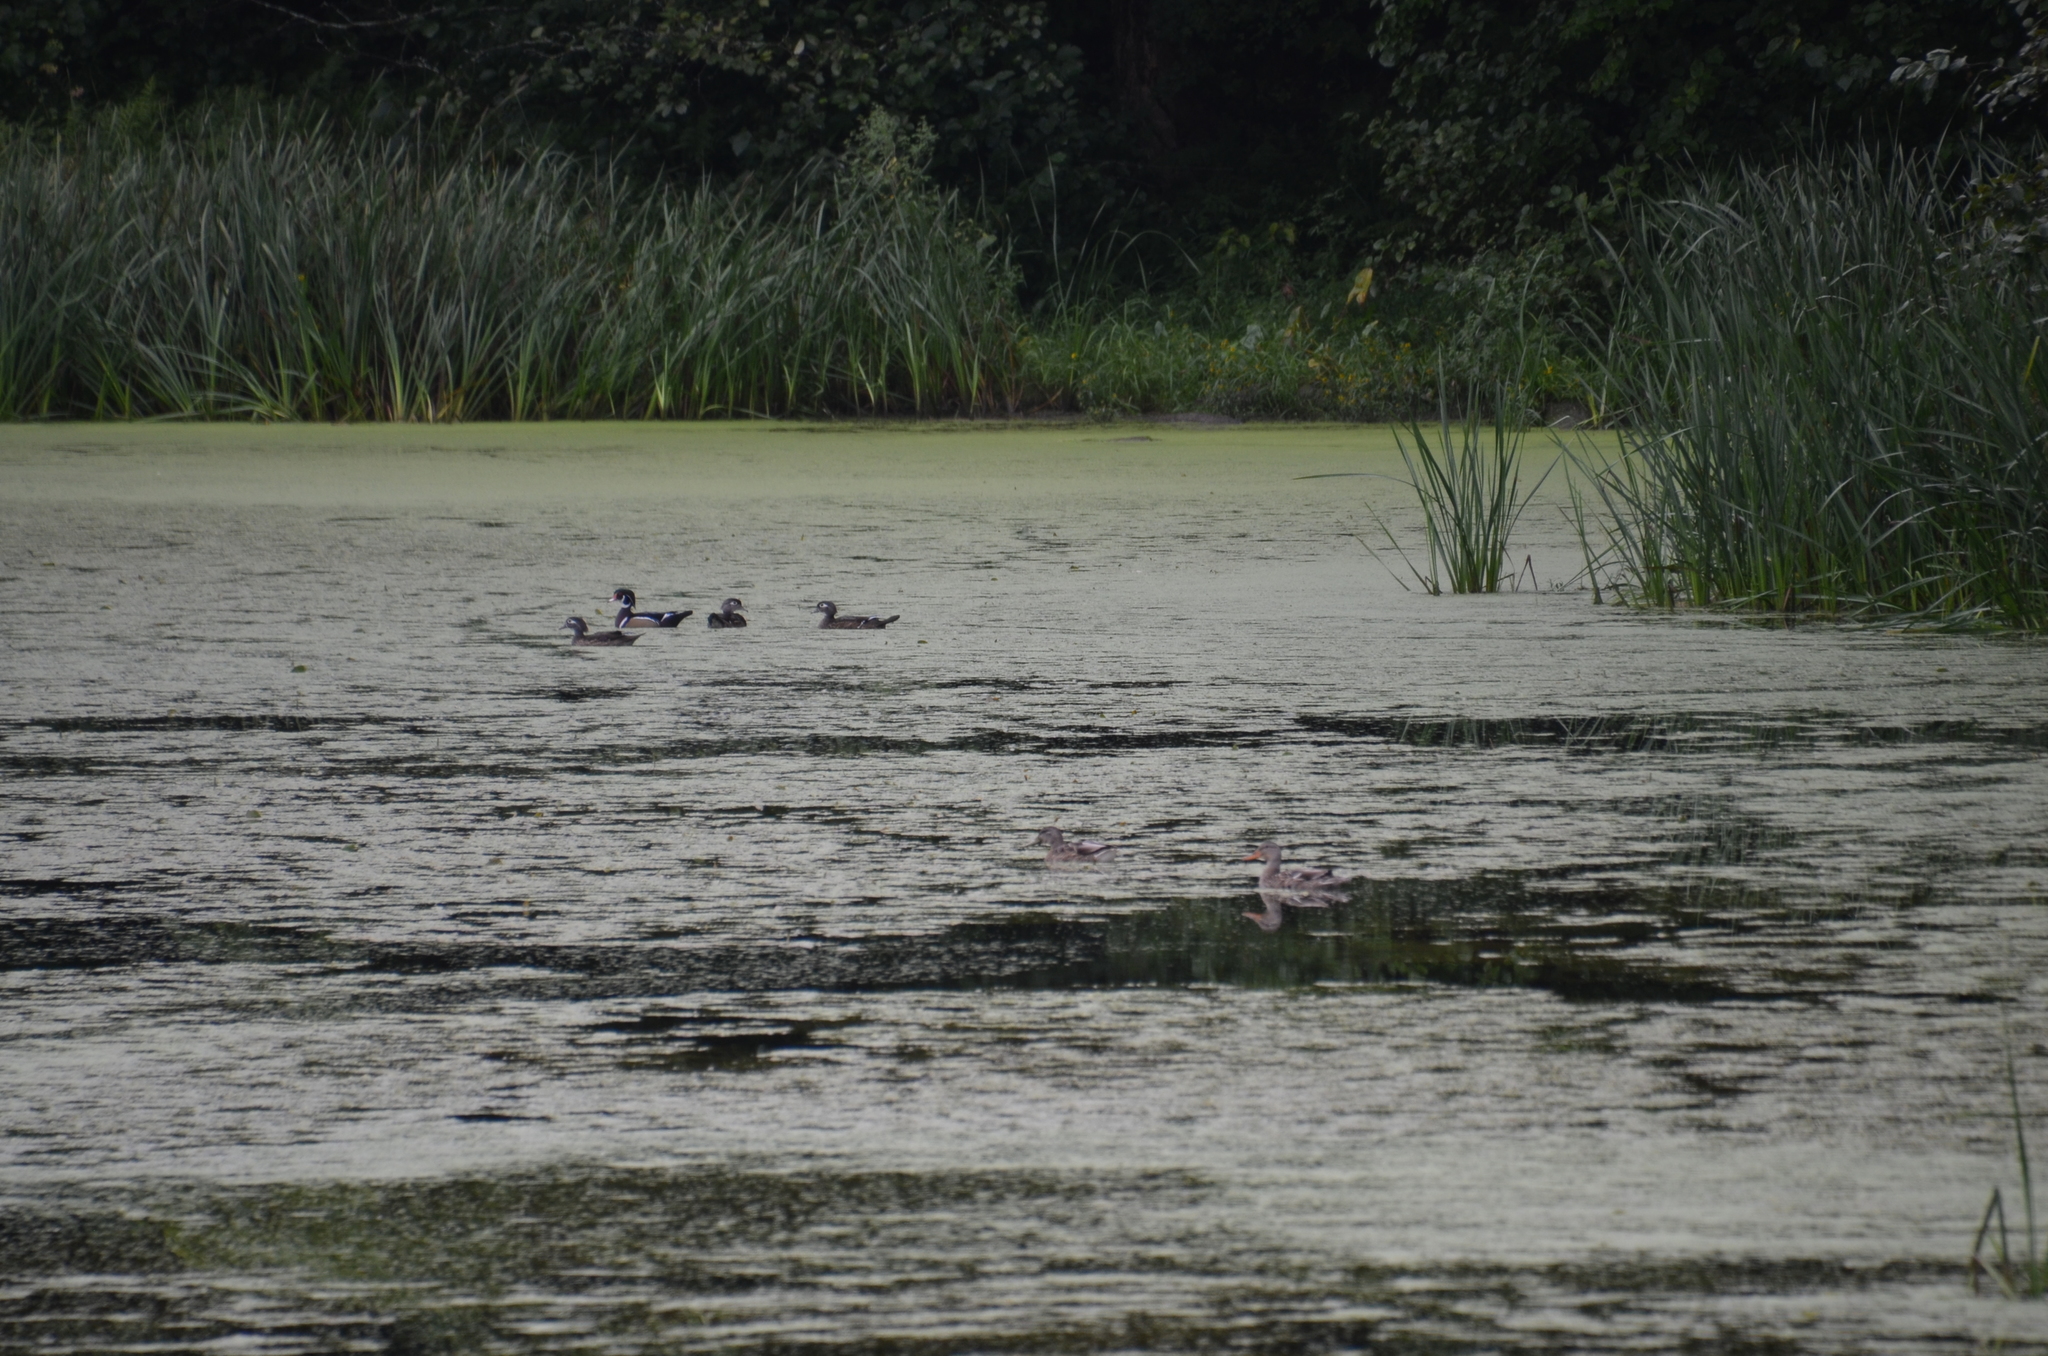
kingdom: Animalia
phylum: Chordata
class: Aves
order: Anseriformes
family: Anatidae
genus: Aix
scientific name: Aix sponsa
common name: Wood duck
